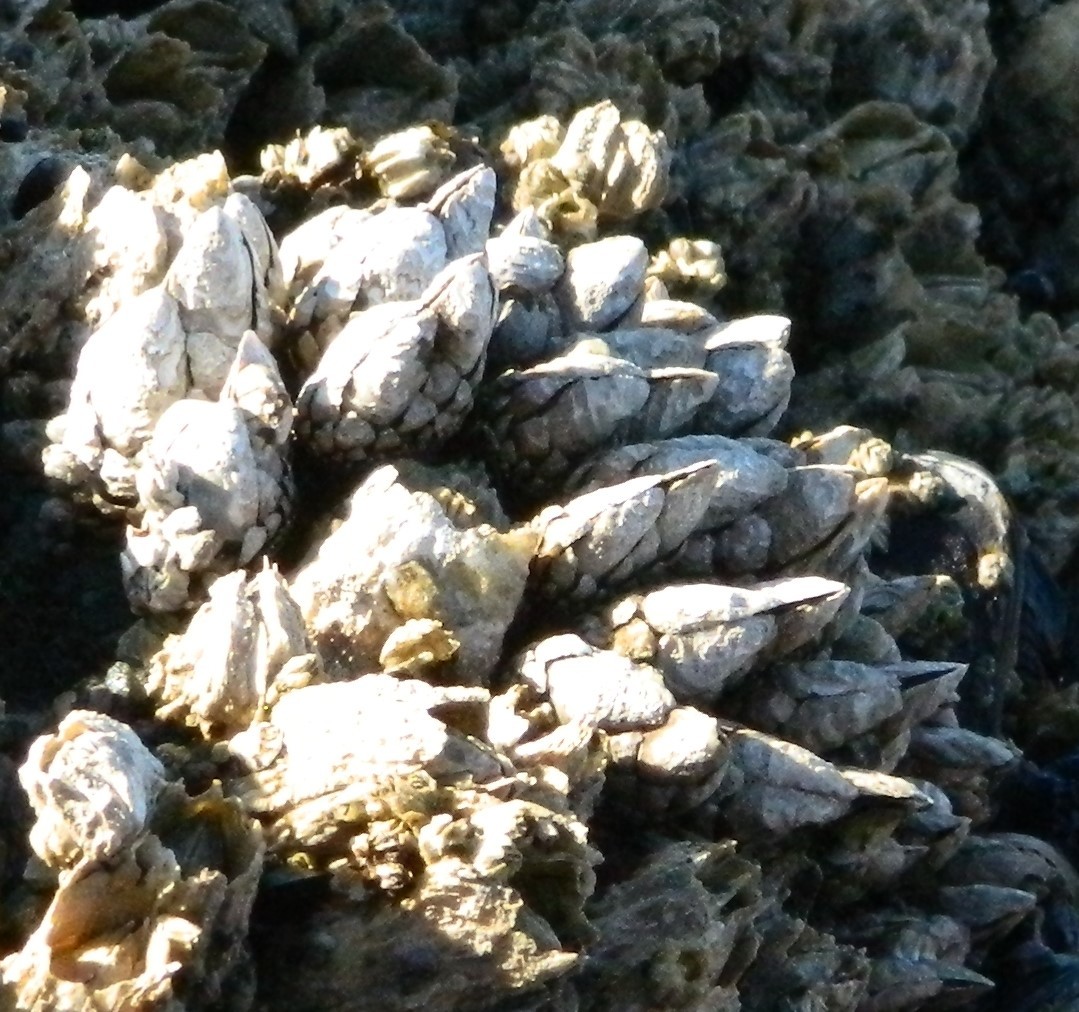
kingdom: Animalia
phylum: Arthropoda
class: Maxillopoda
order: Pedunculata
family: Pollicipedidae
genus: Pollicipes
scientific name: Pollicipes polymerus
